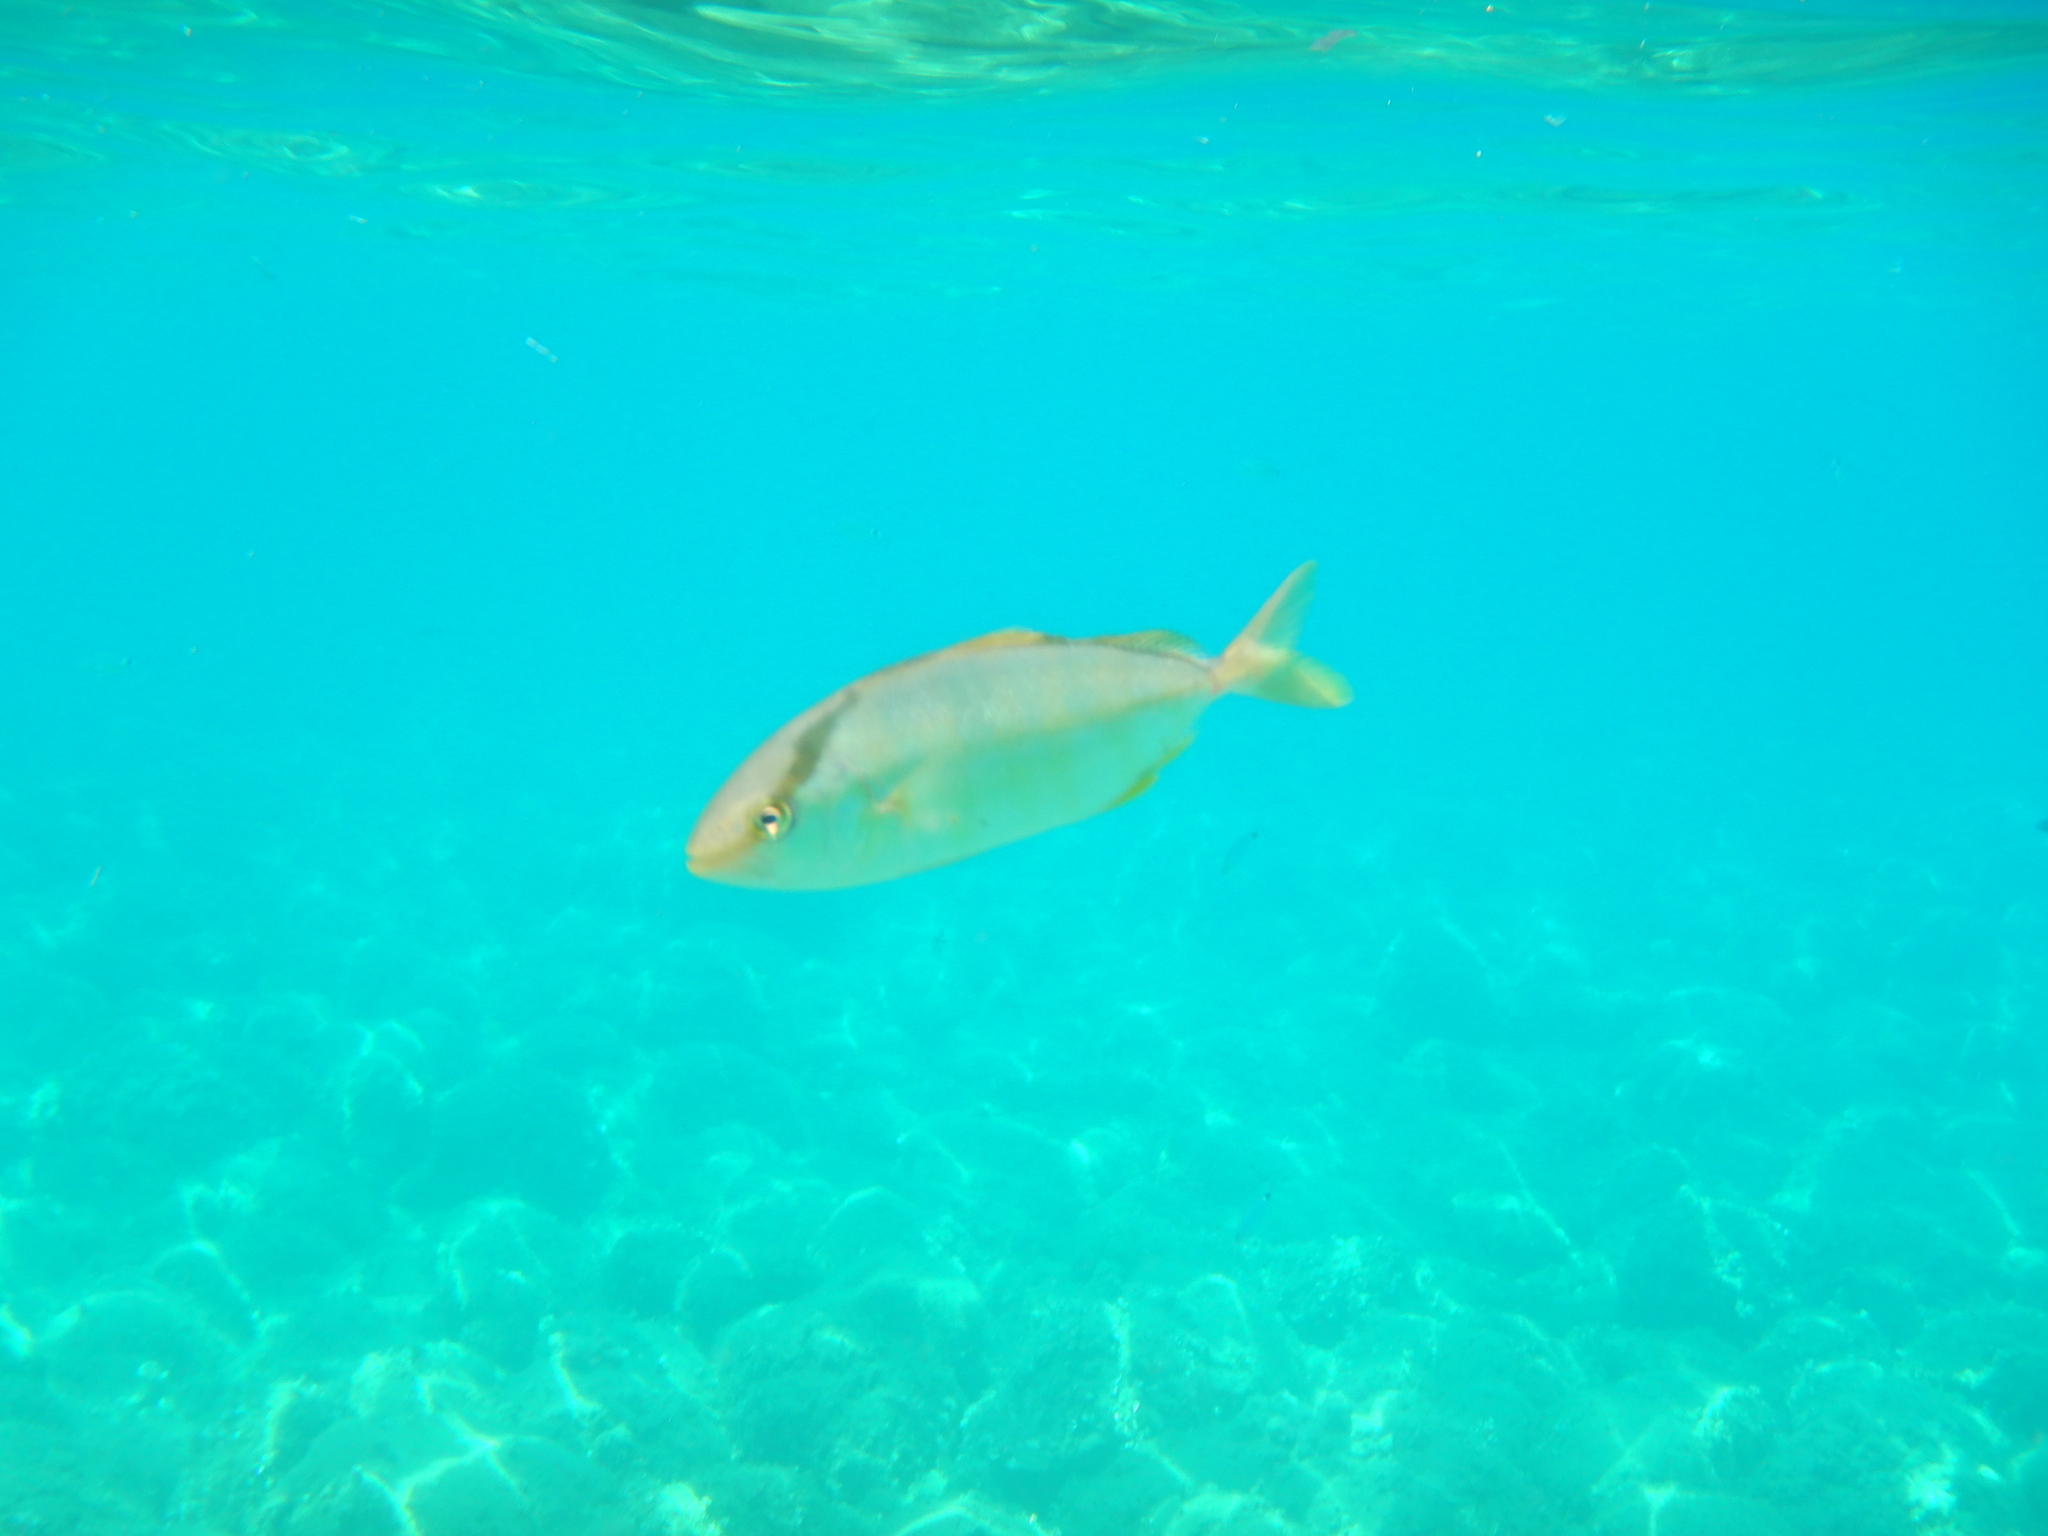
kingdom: Animalia
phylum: Chordata
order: Perciformes
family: Carangidae
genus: Seriola
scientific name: Seriola dumerili
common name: Greater amberjack
